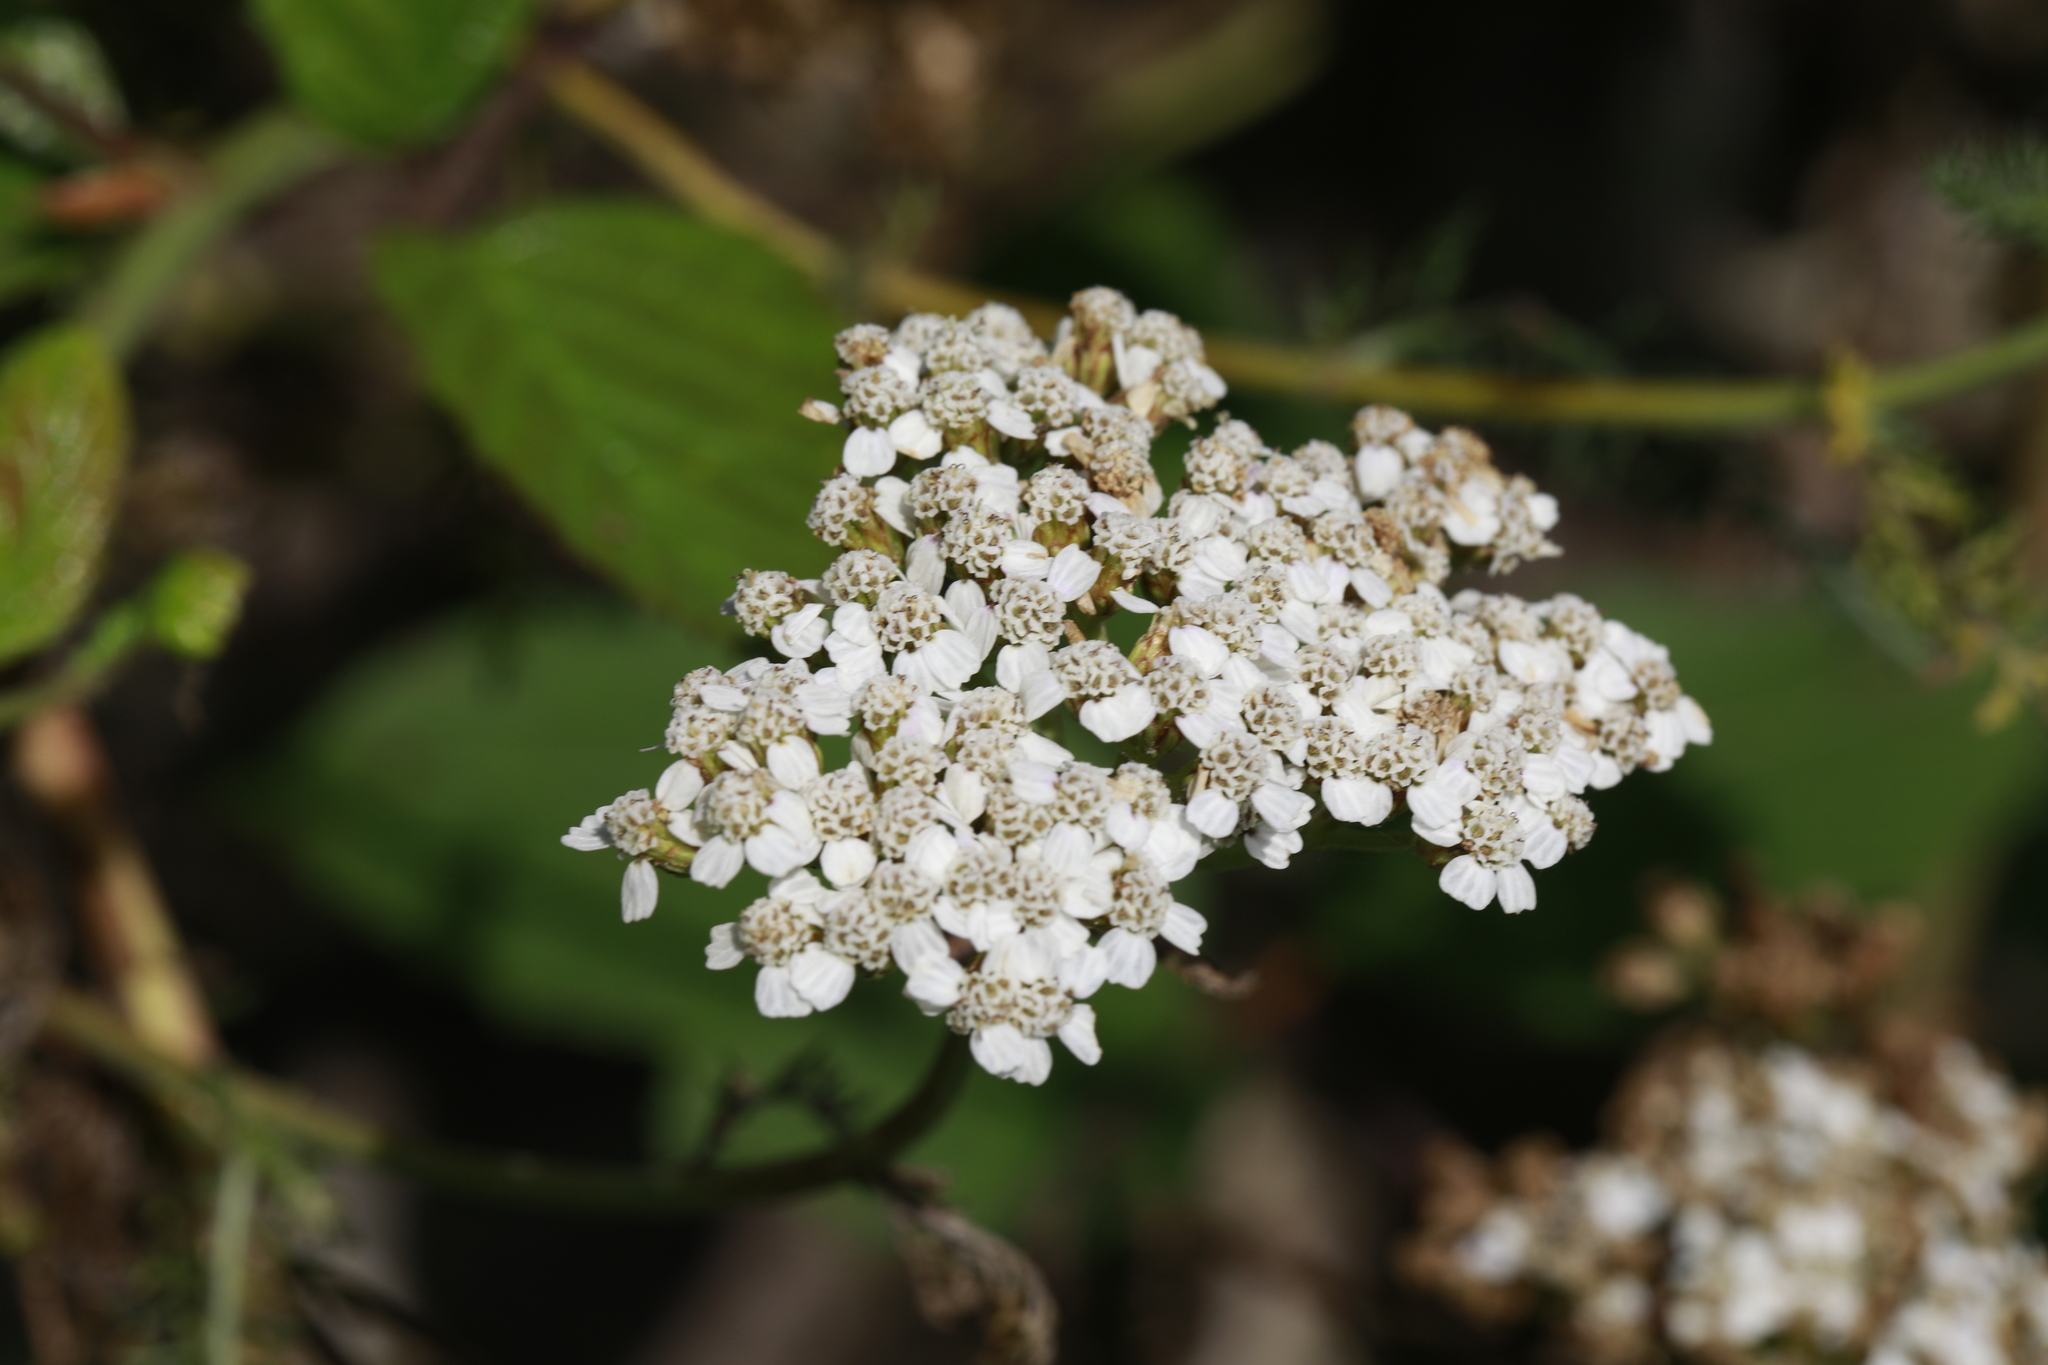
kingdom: Plantae
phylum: Tracheophyta
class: Magnoliopsida
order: Asterales
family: Asteraceae
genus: Achillea
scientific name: Achillea millefolium
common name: Yarrow
